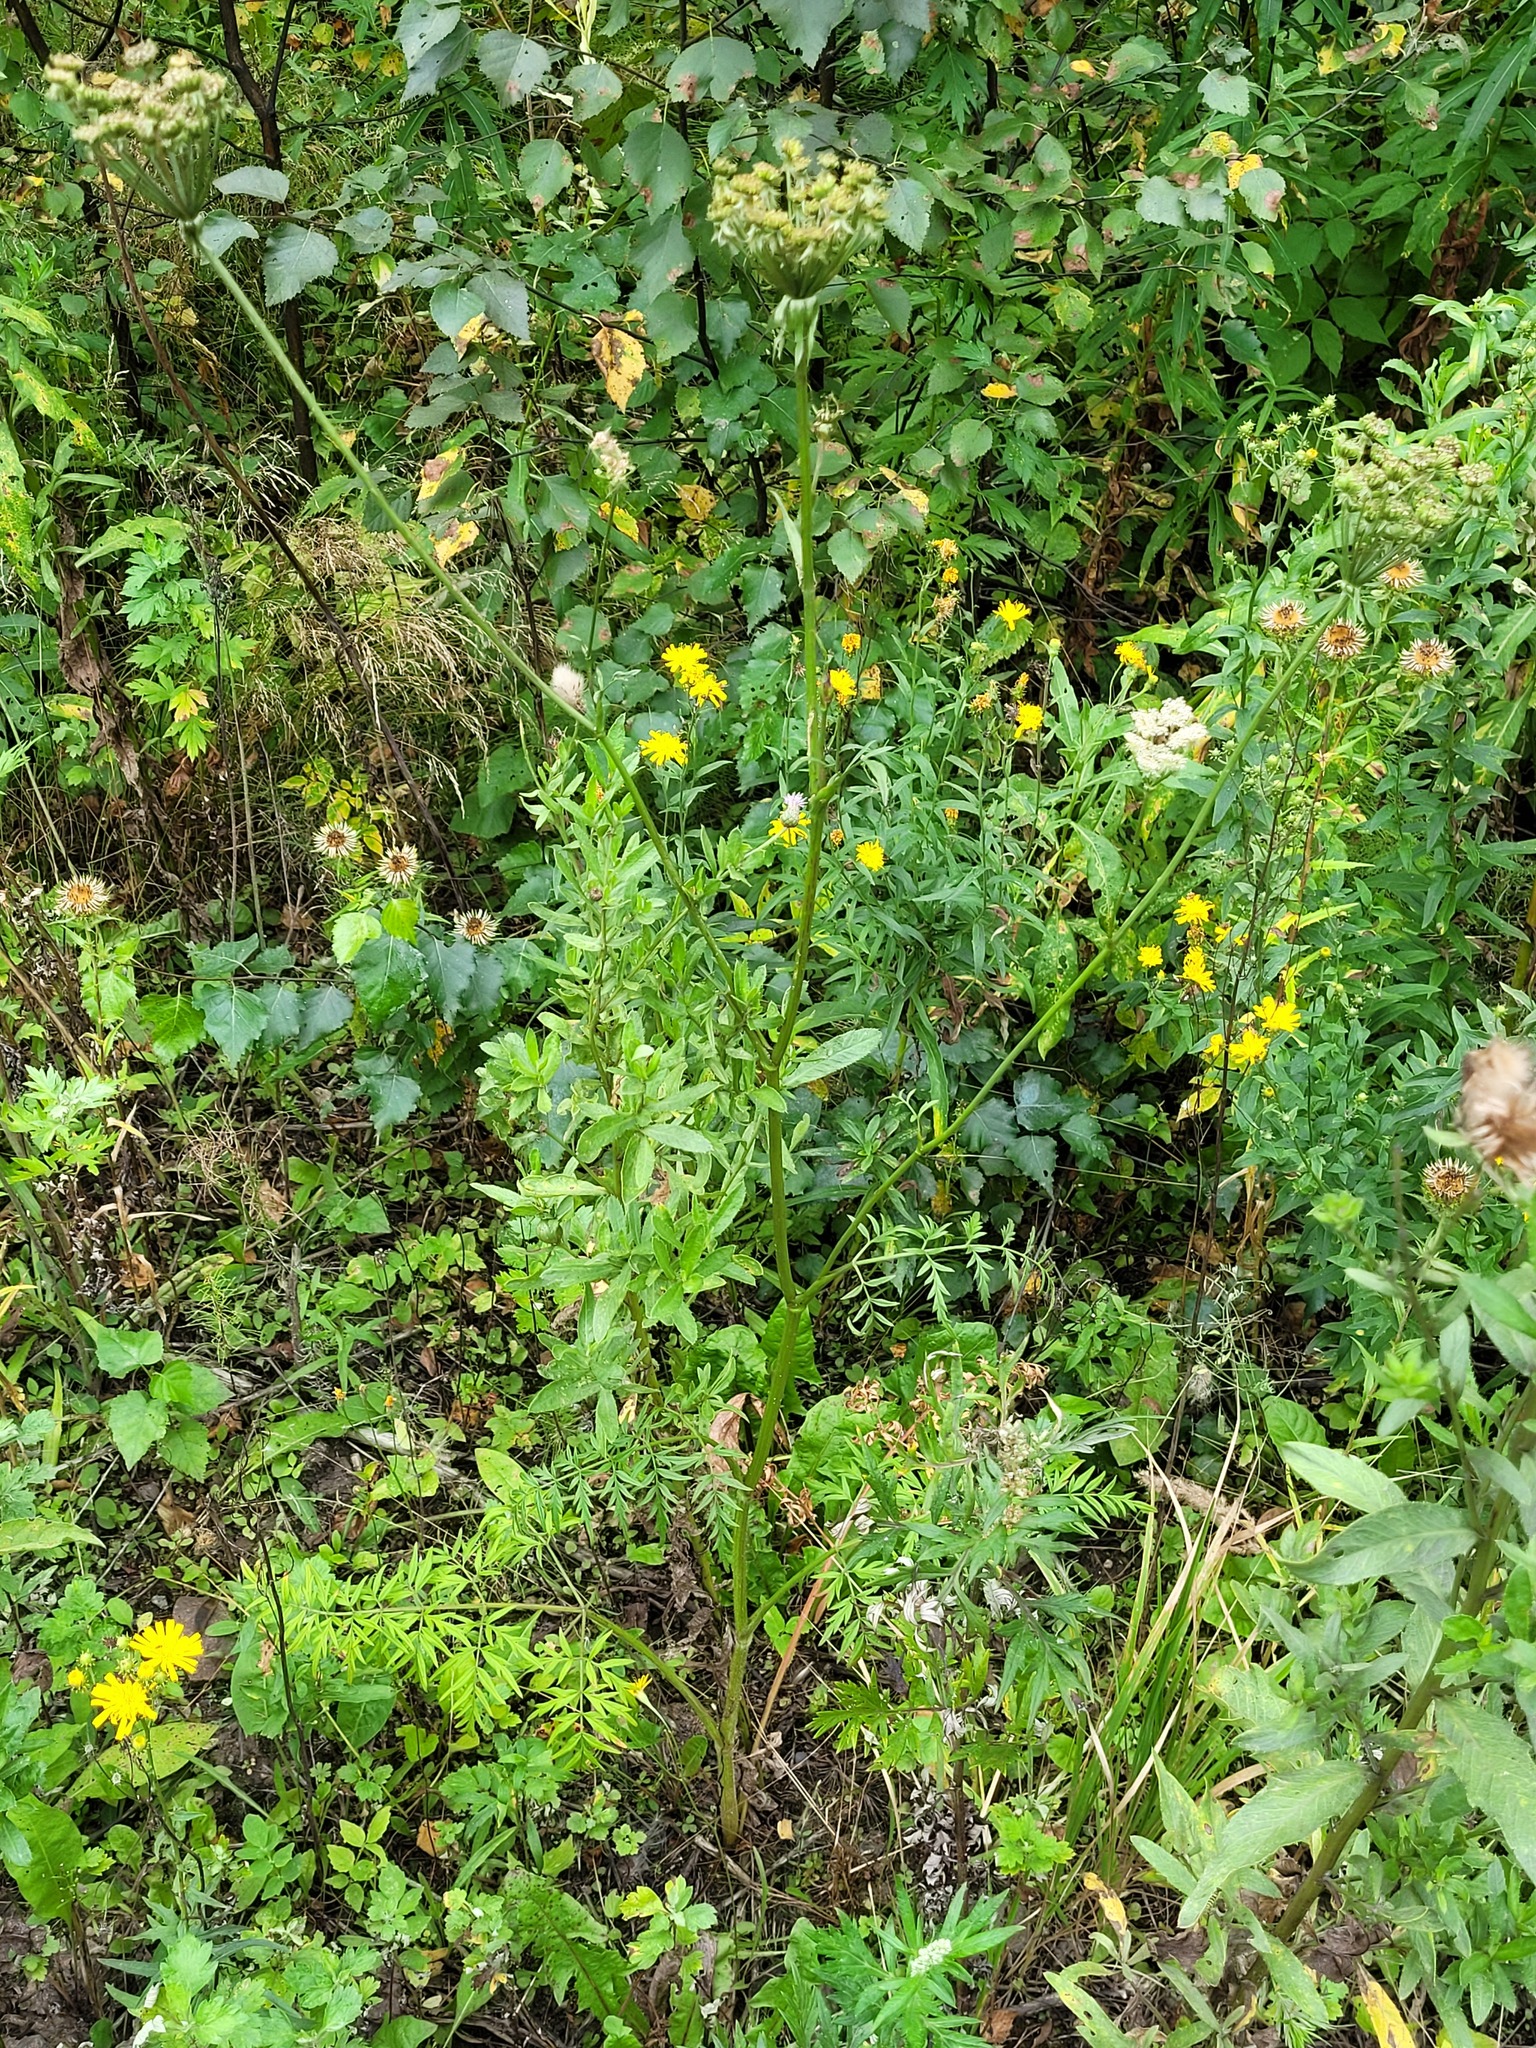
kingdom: Plantae
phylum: Tracheophyta
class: Magnoliopsida
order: Apiales
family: Apiaceae
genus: Silphiodaucus
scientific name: Silphiodaucus prutenicus
